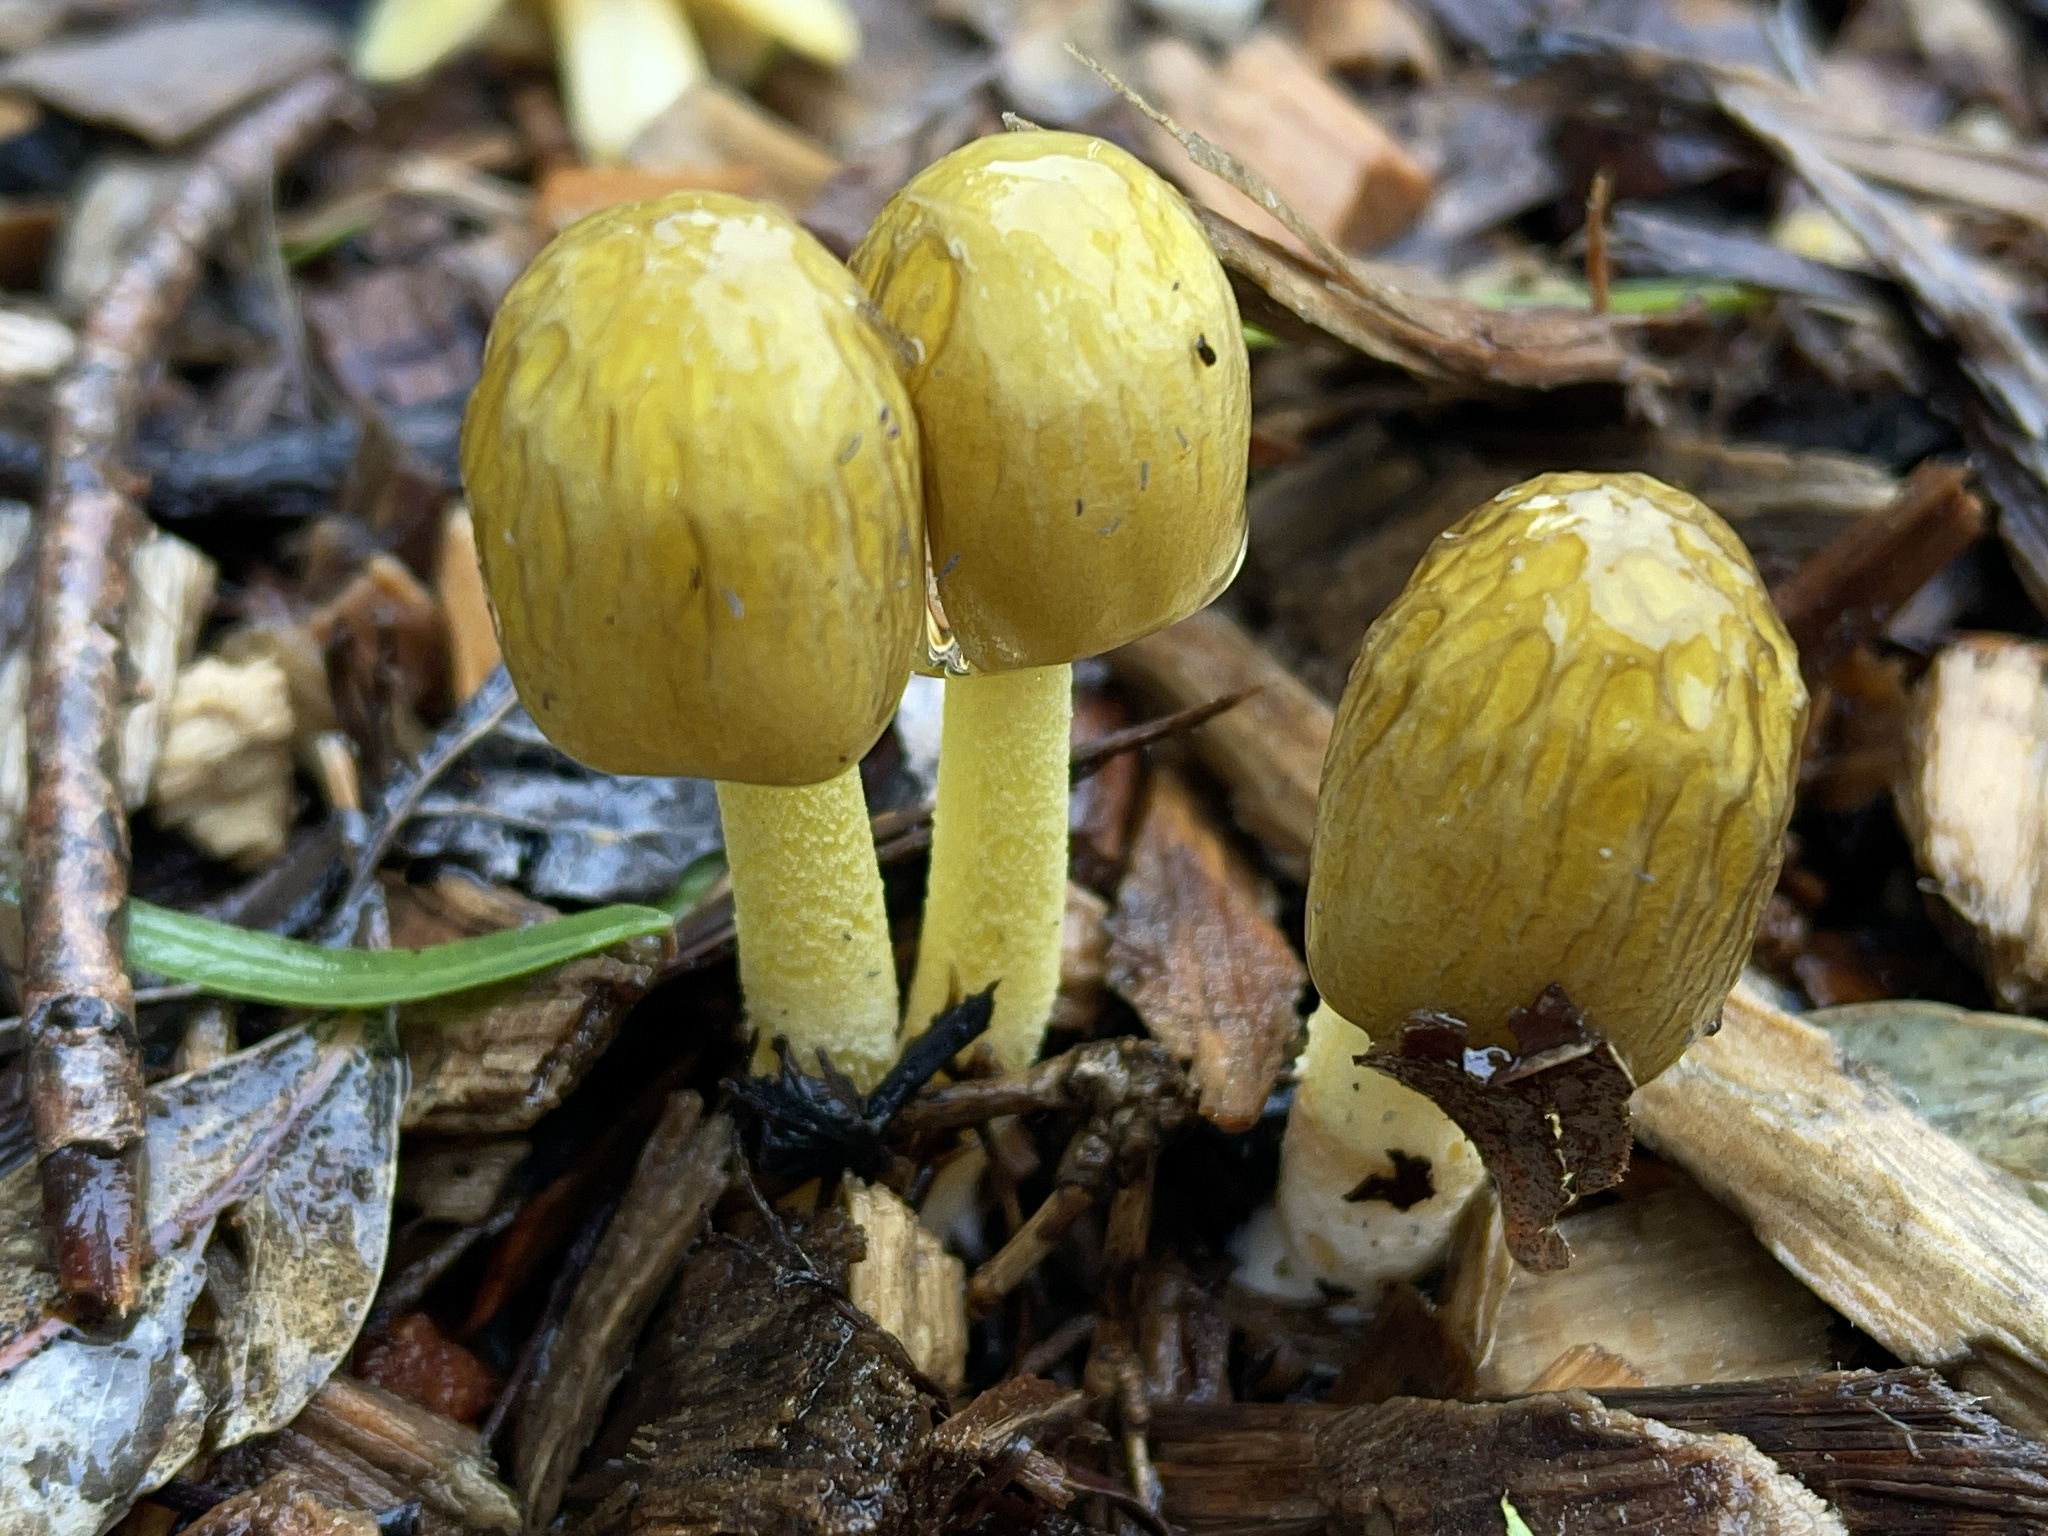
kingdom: Fungi
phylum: Basidiomycota
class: Agaricomycetes
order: Agaricales
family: Bolbitiaceae
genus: Bolbitius
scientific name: Bolbitius titubans
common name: Yellow fieldcap
